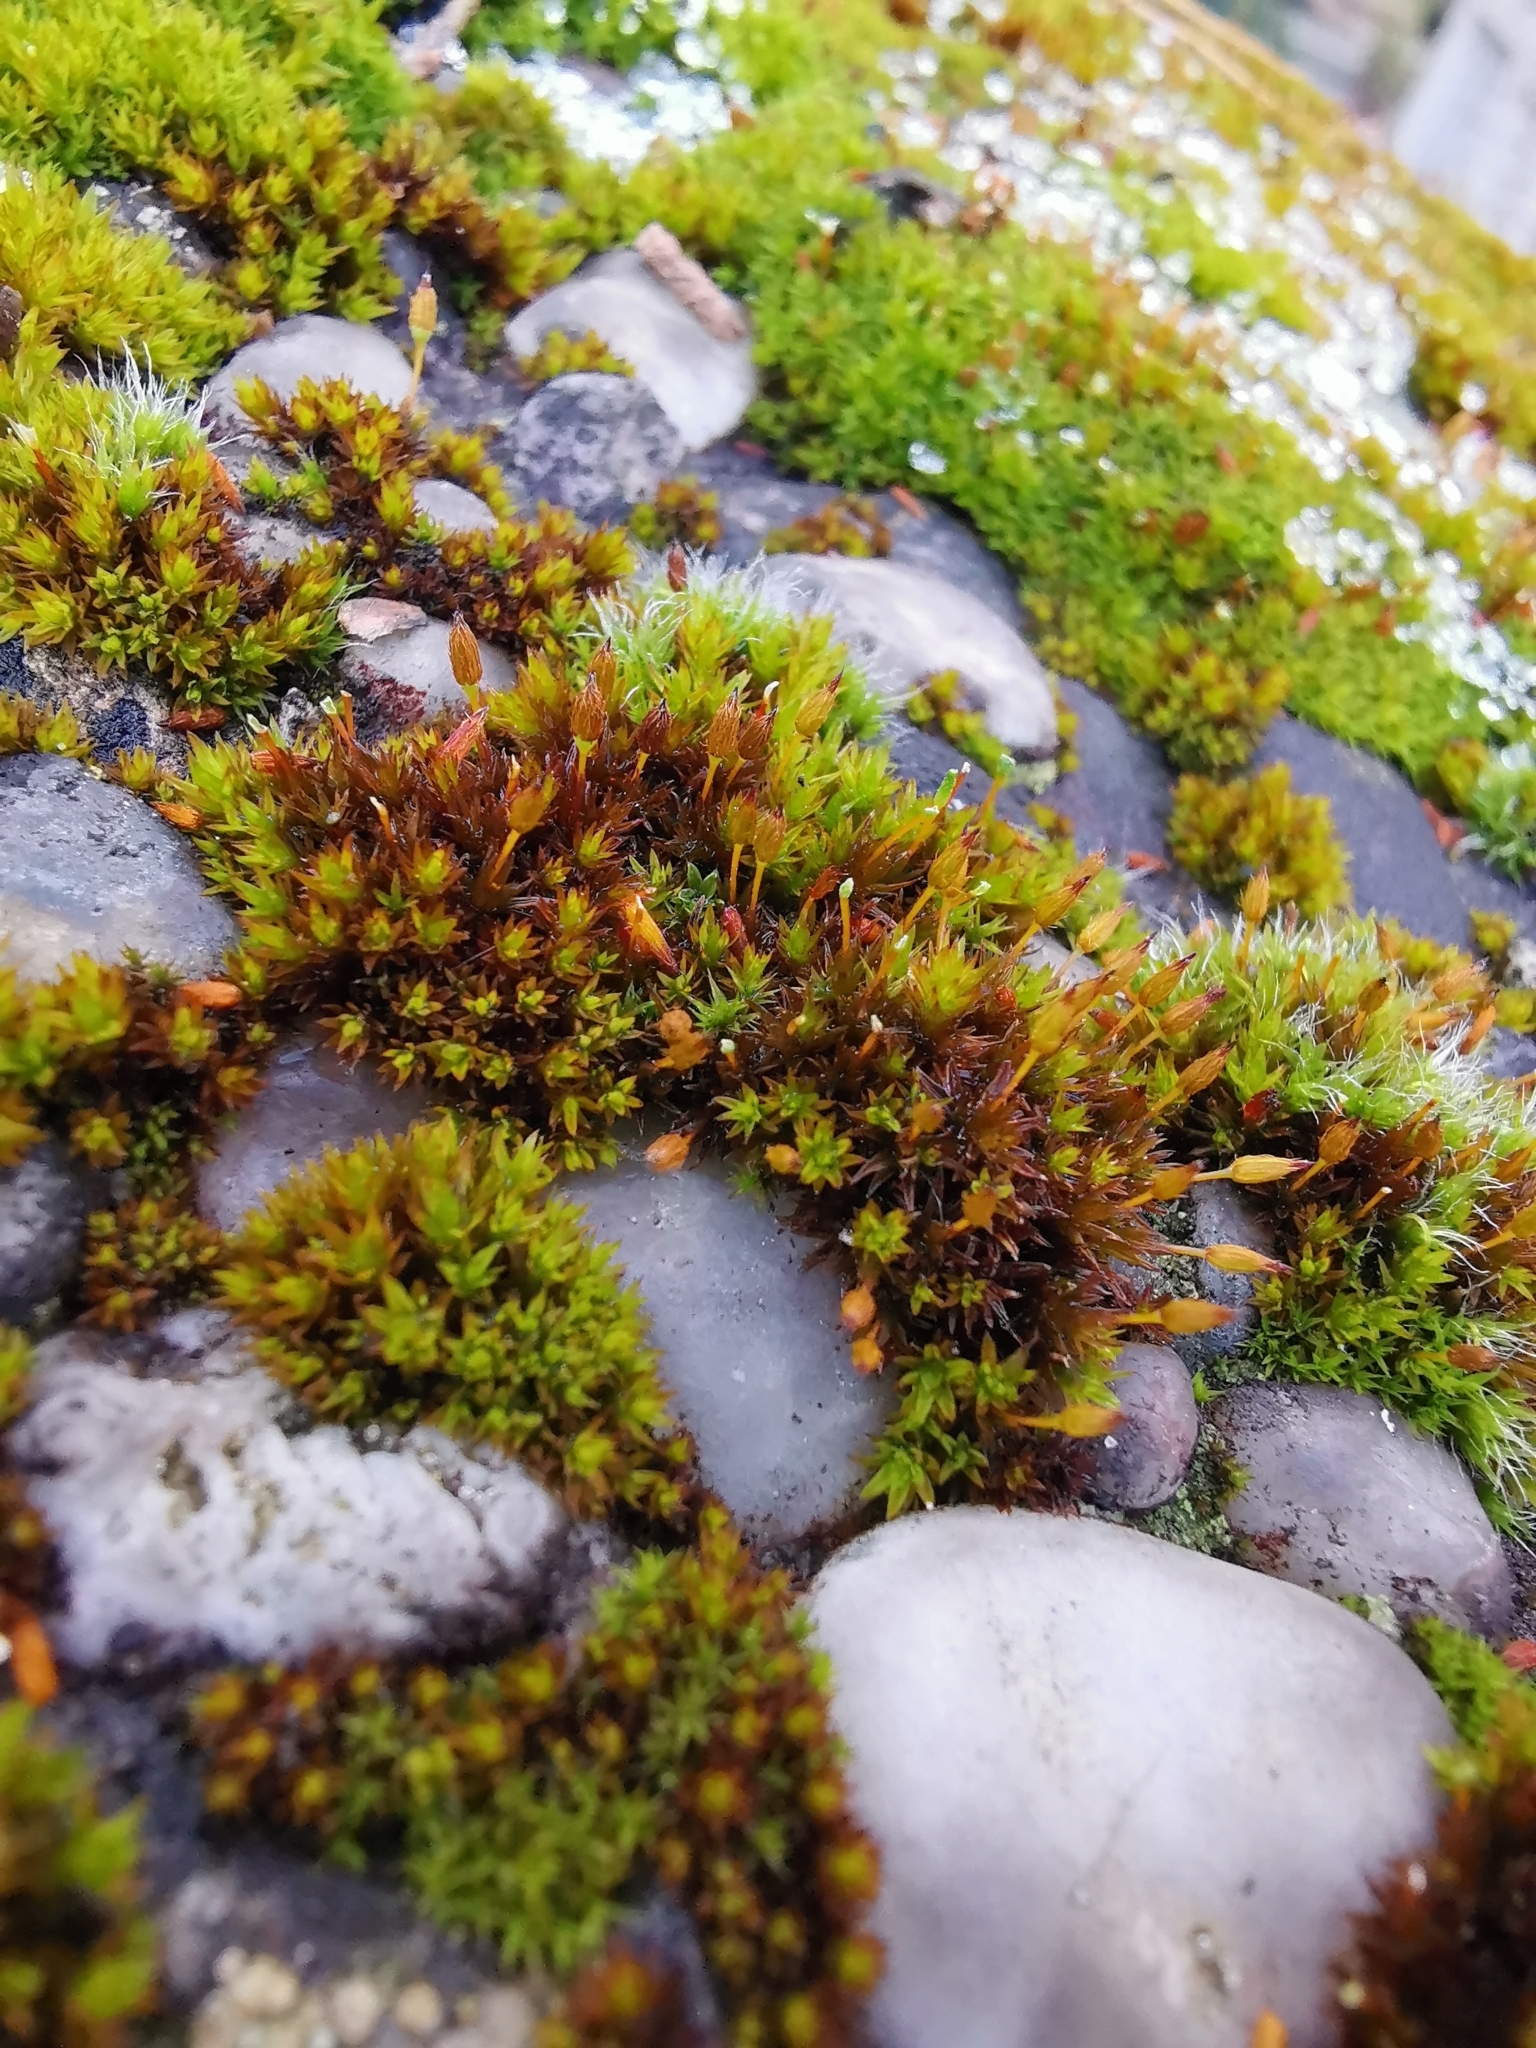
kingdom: Plantae
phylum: Bryophyta
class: Bryopsida
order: Orthotrichales
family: Orthotrichaceae
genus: Orthotrichum
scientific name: Orthotrichum anomalum
